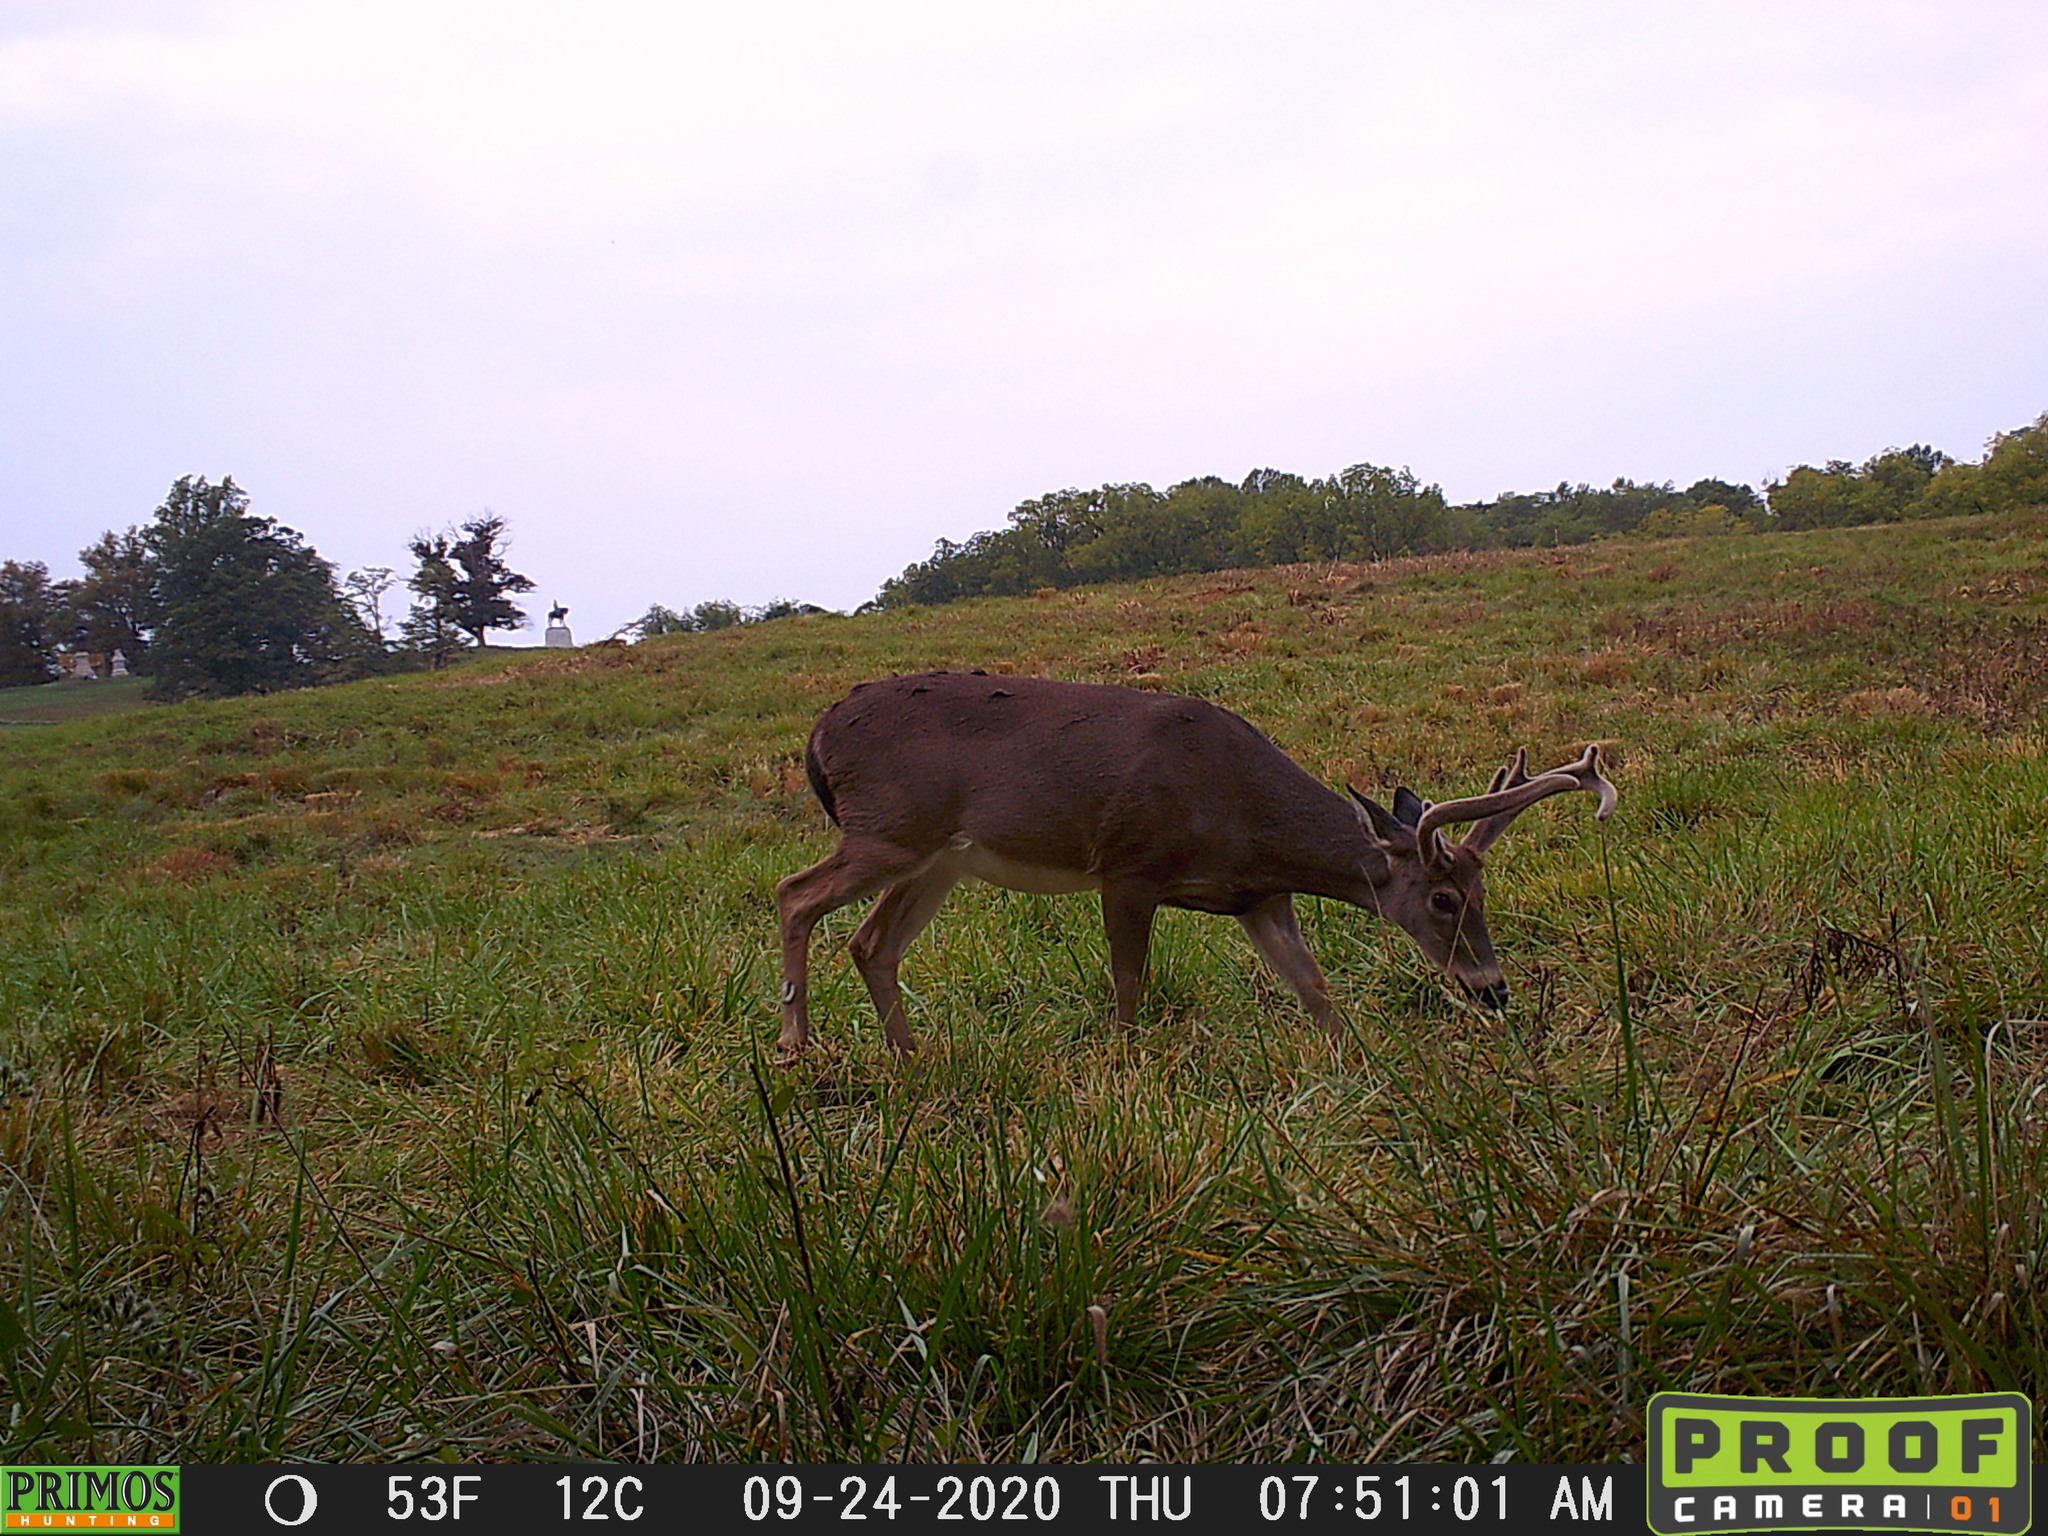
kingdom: Animalia
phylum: Chordata
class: Mammalia
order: Artiodactyla
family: Cervidae
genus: Odocoileus
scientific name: Odocoileus virginianus
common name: White-tailed deer
